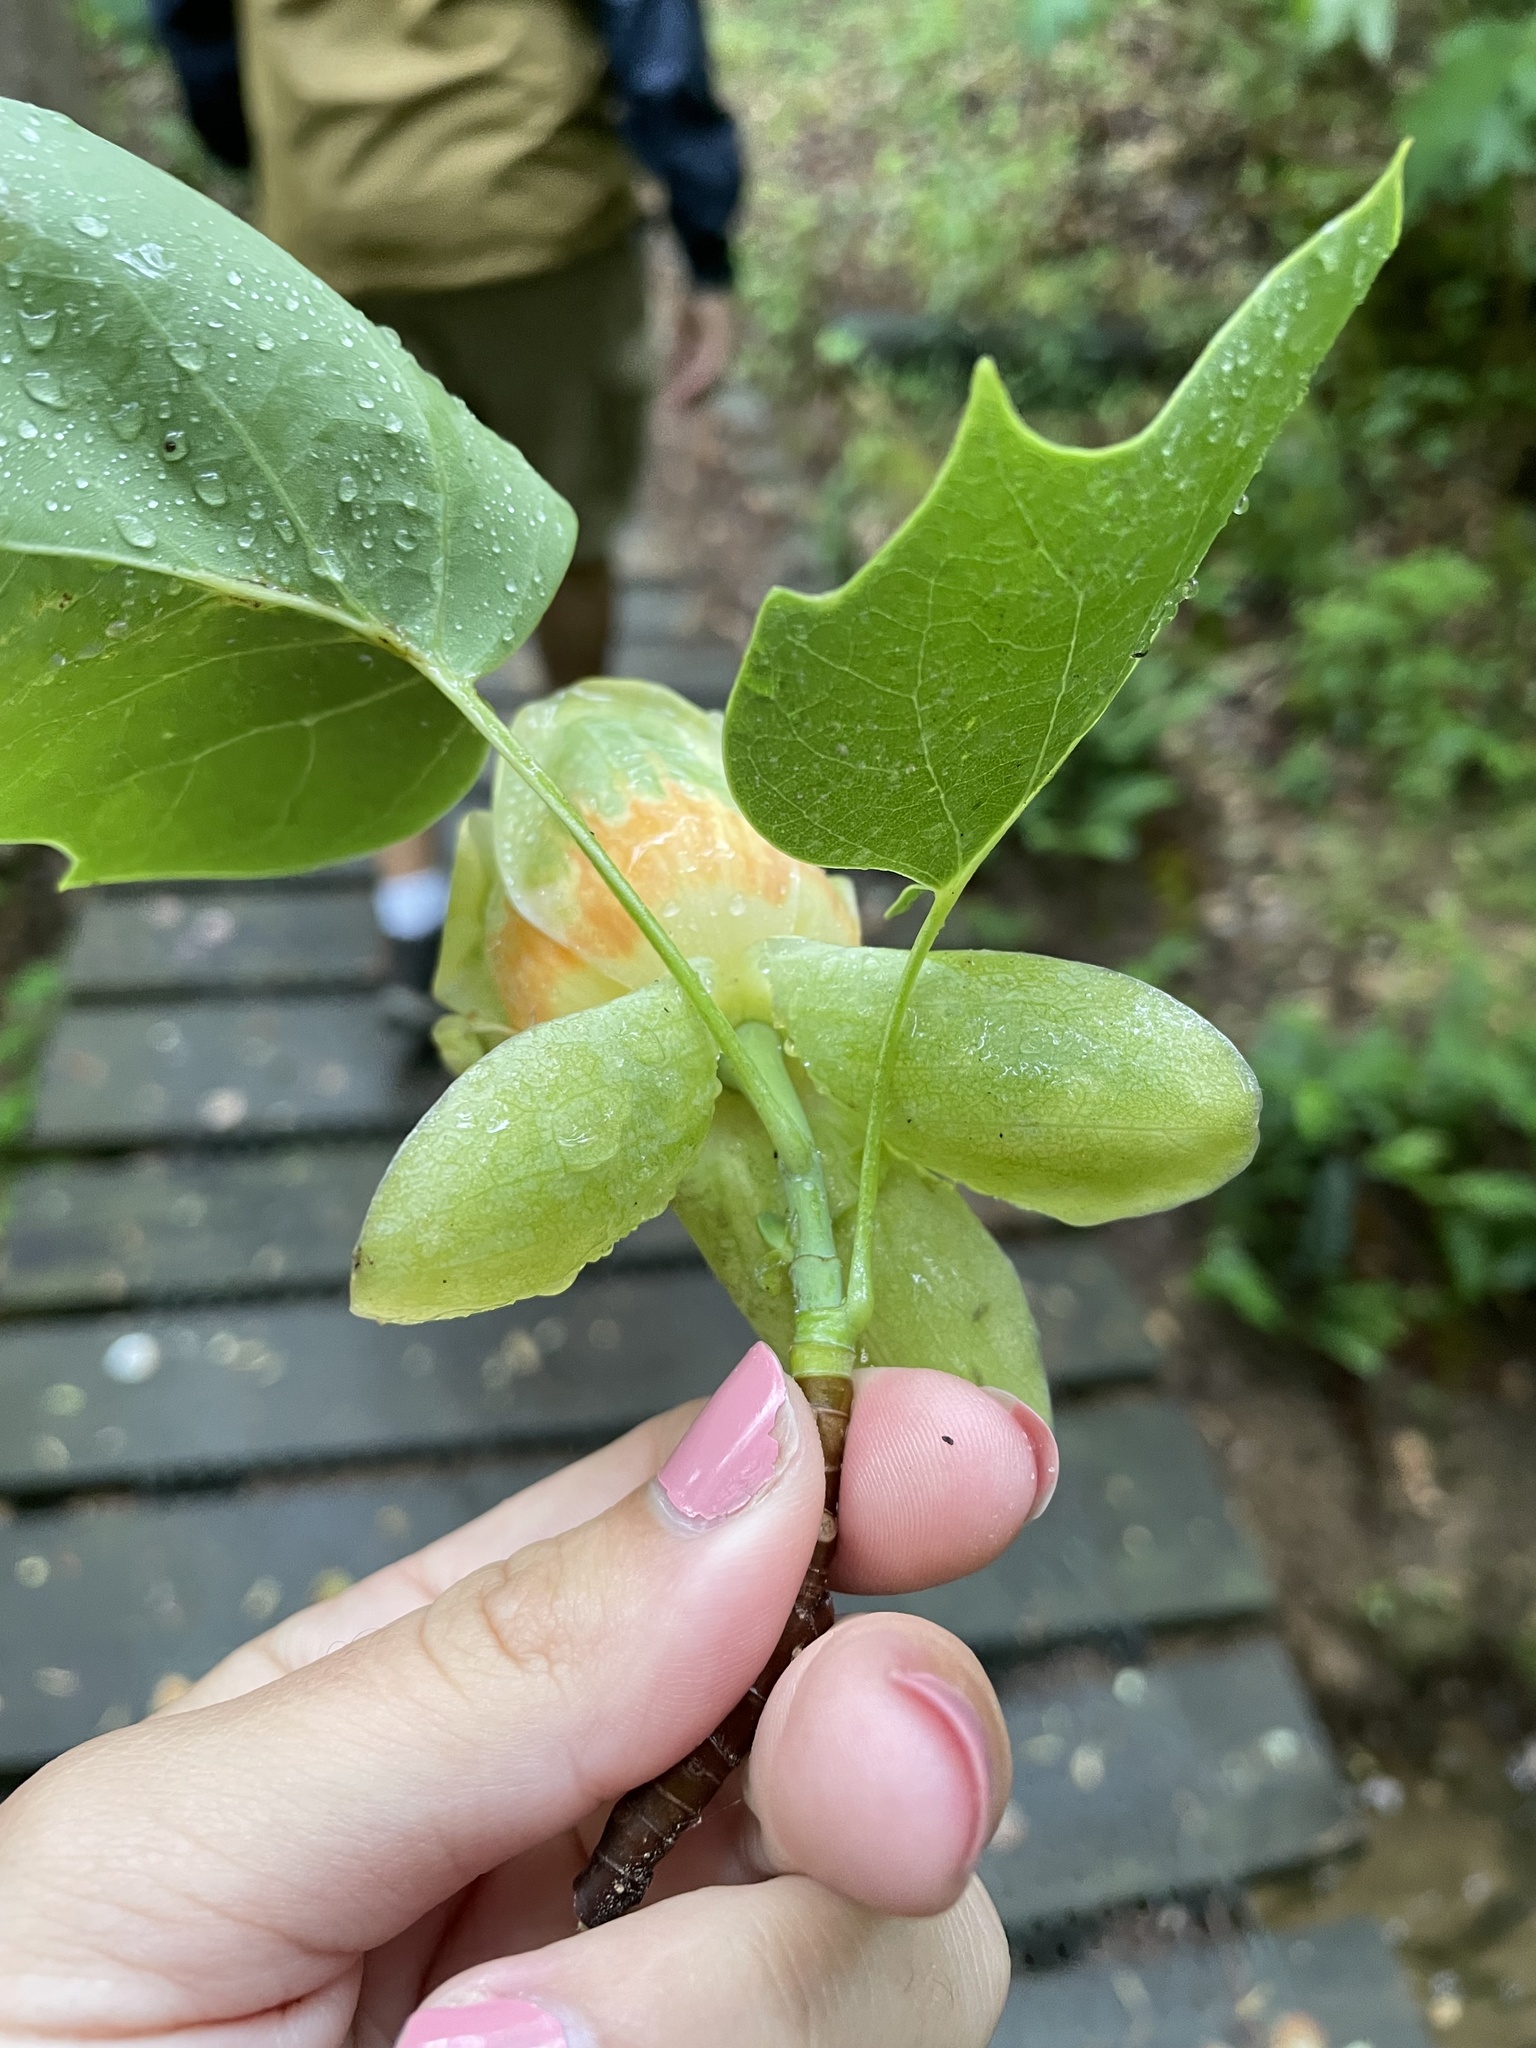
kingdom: Plantae
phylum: Tracheophyta
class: Magnoliopsida
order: Magnoliales
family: Magnoliaceae
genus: Liriodendron
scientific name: Liriodendron tulipifera
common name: Tulip tree
